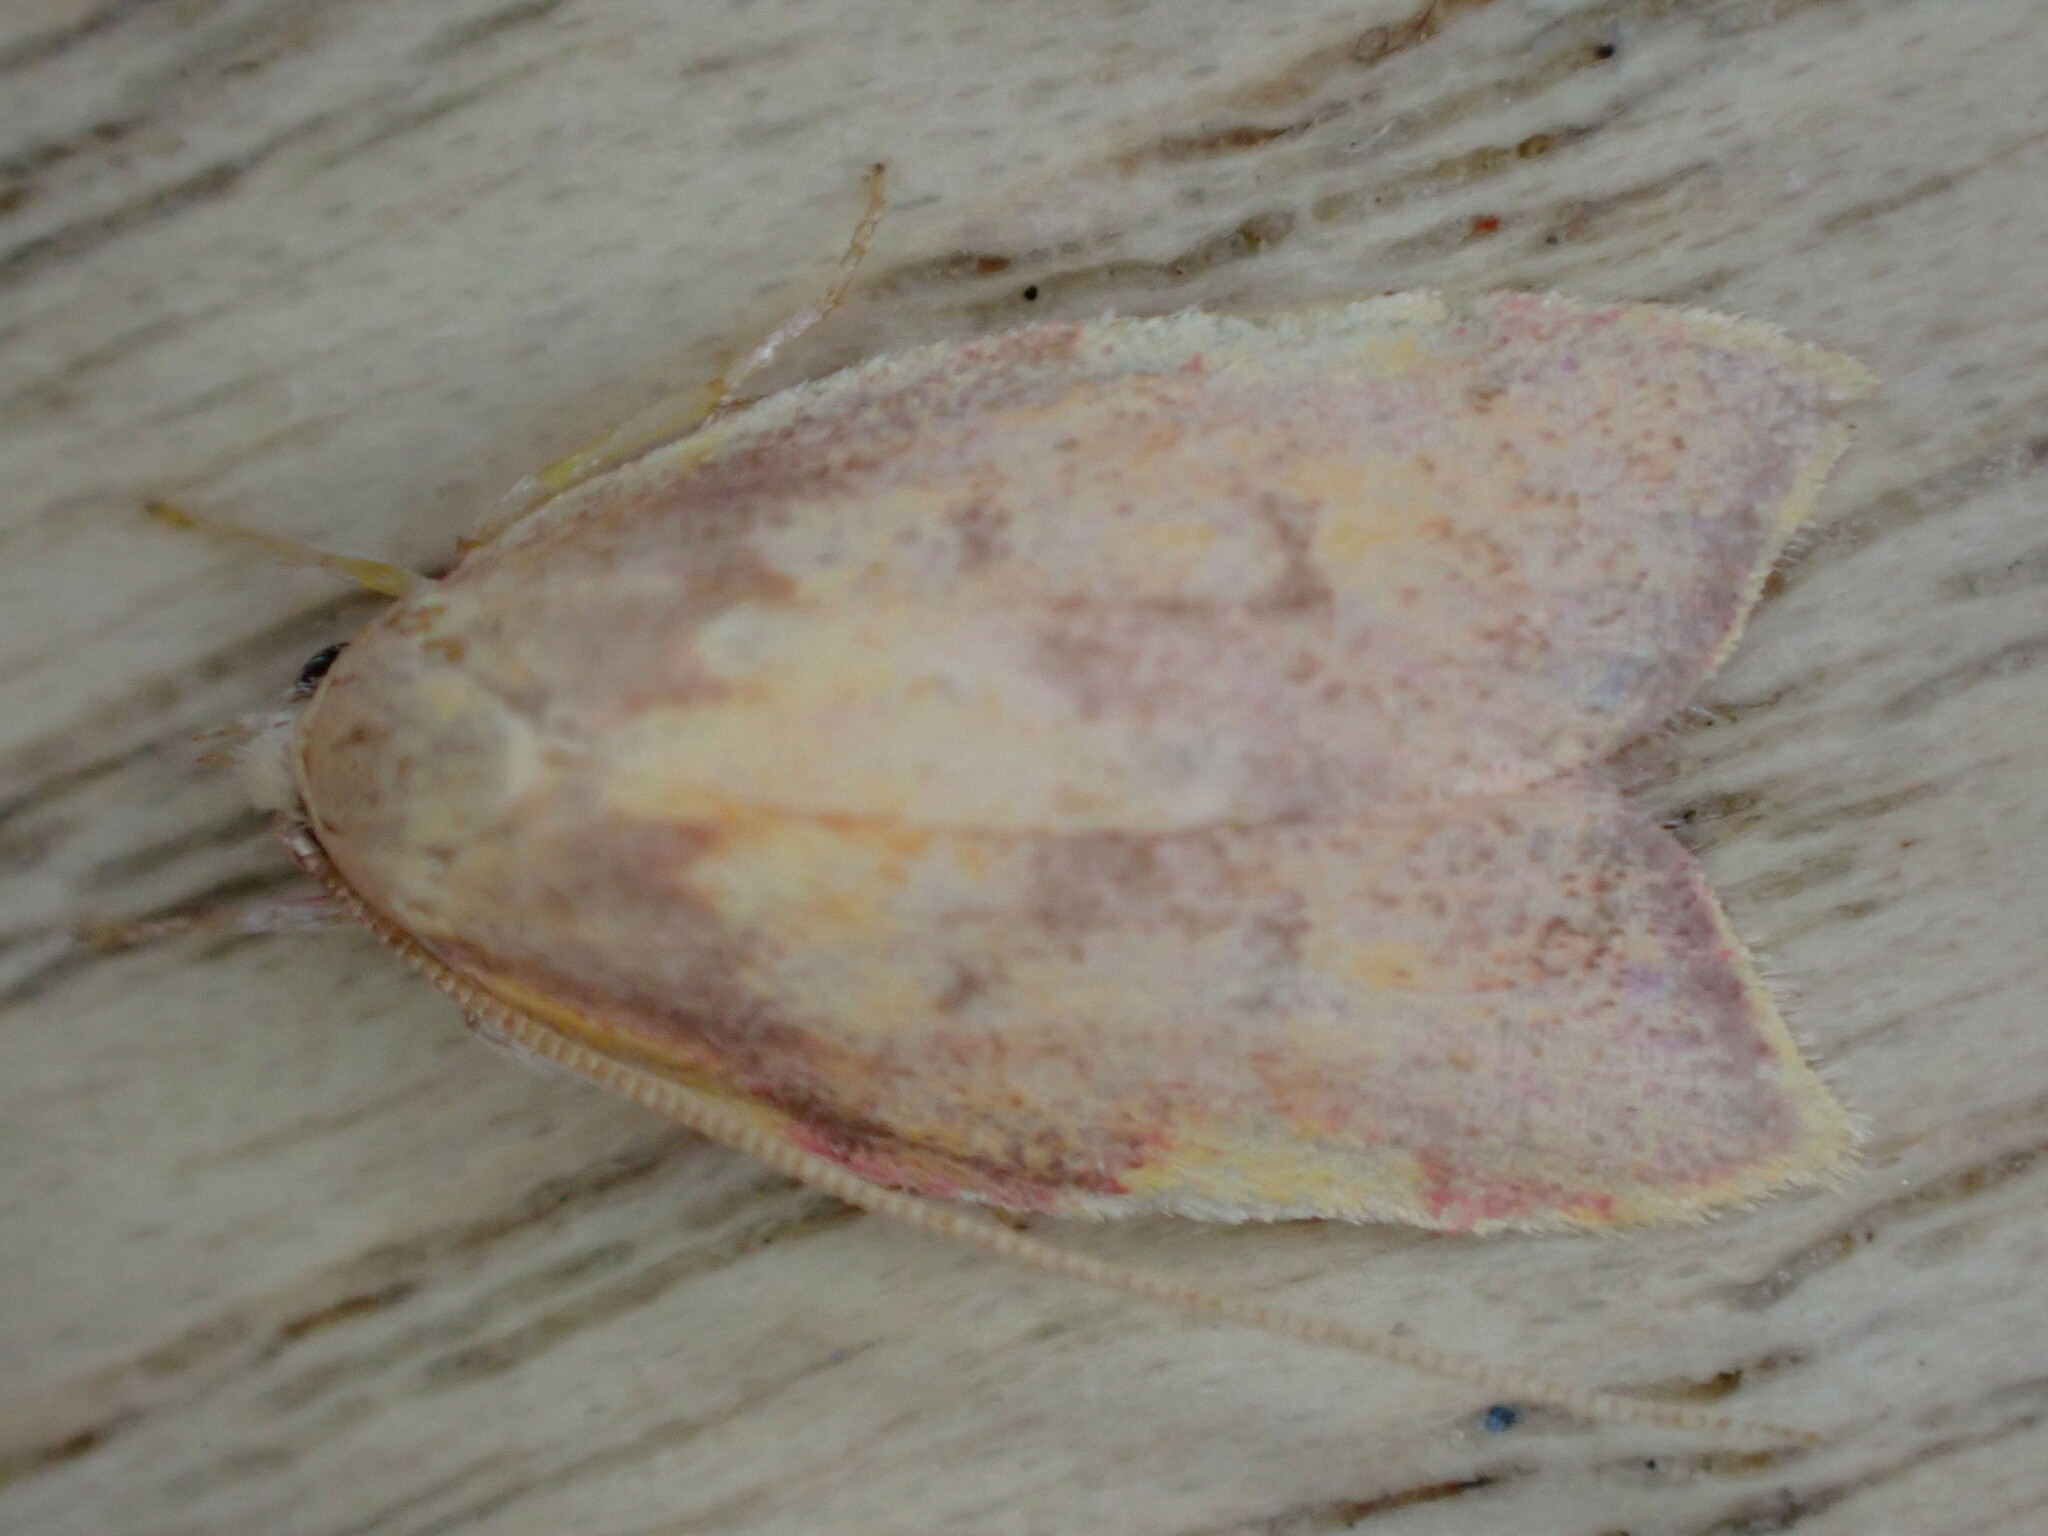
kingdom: Animalia
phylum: Arthropoda
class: Insecta
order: Lepidoptera
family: Peleopodidae
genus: Carcina
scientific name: Carcina quercana
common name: Moth
